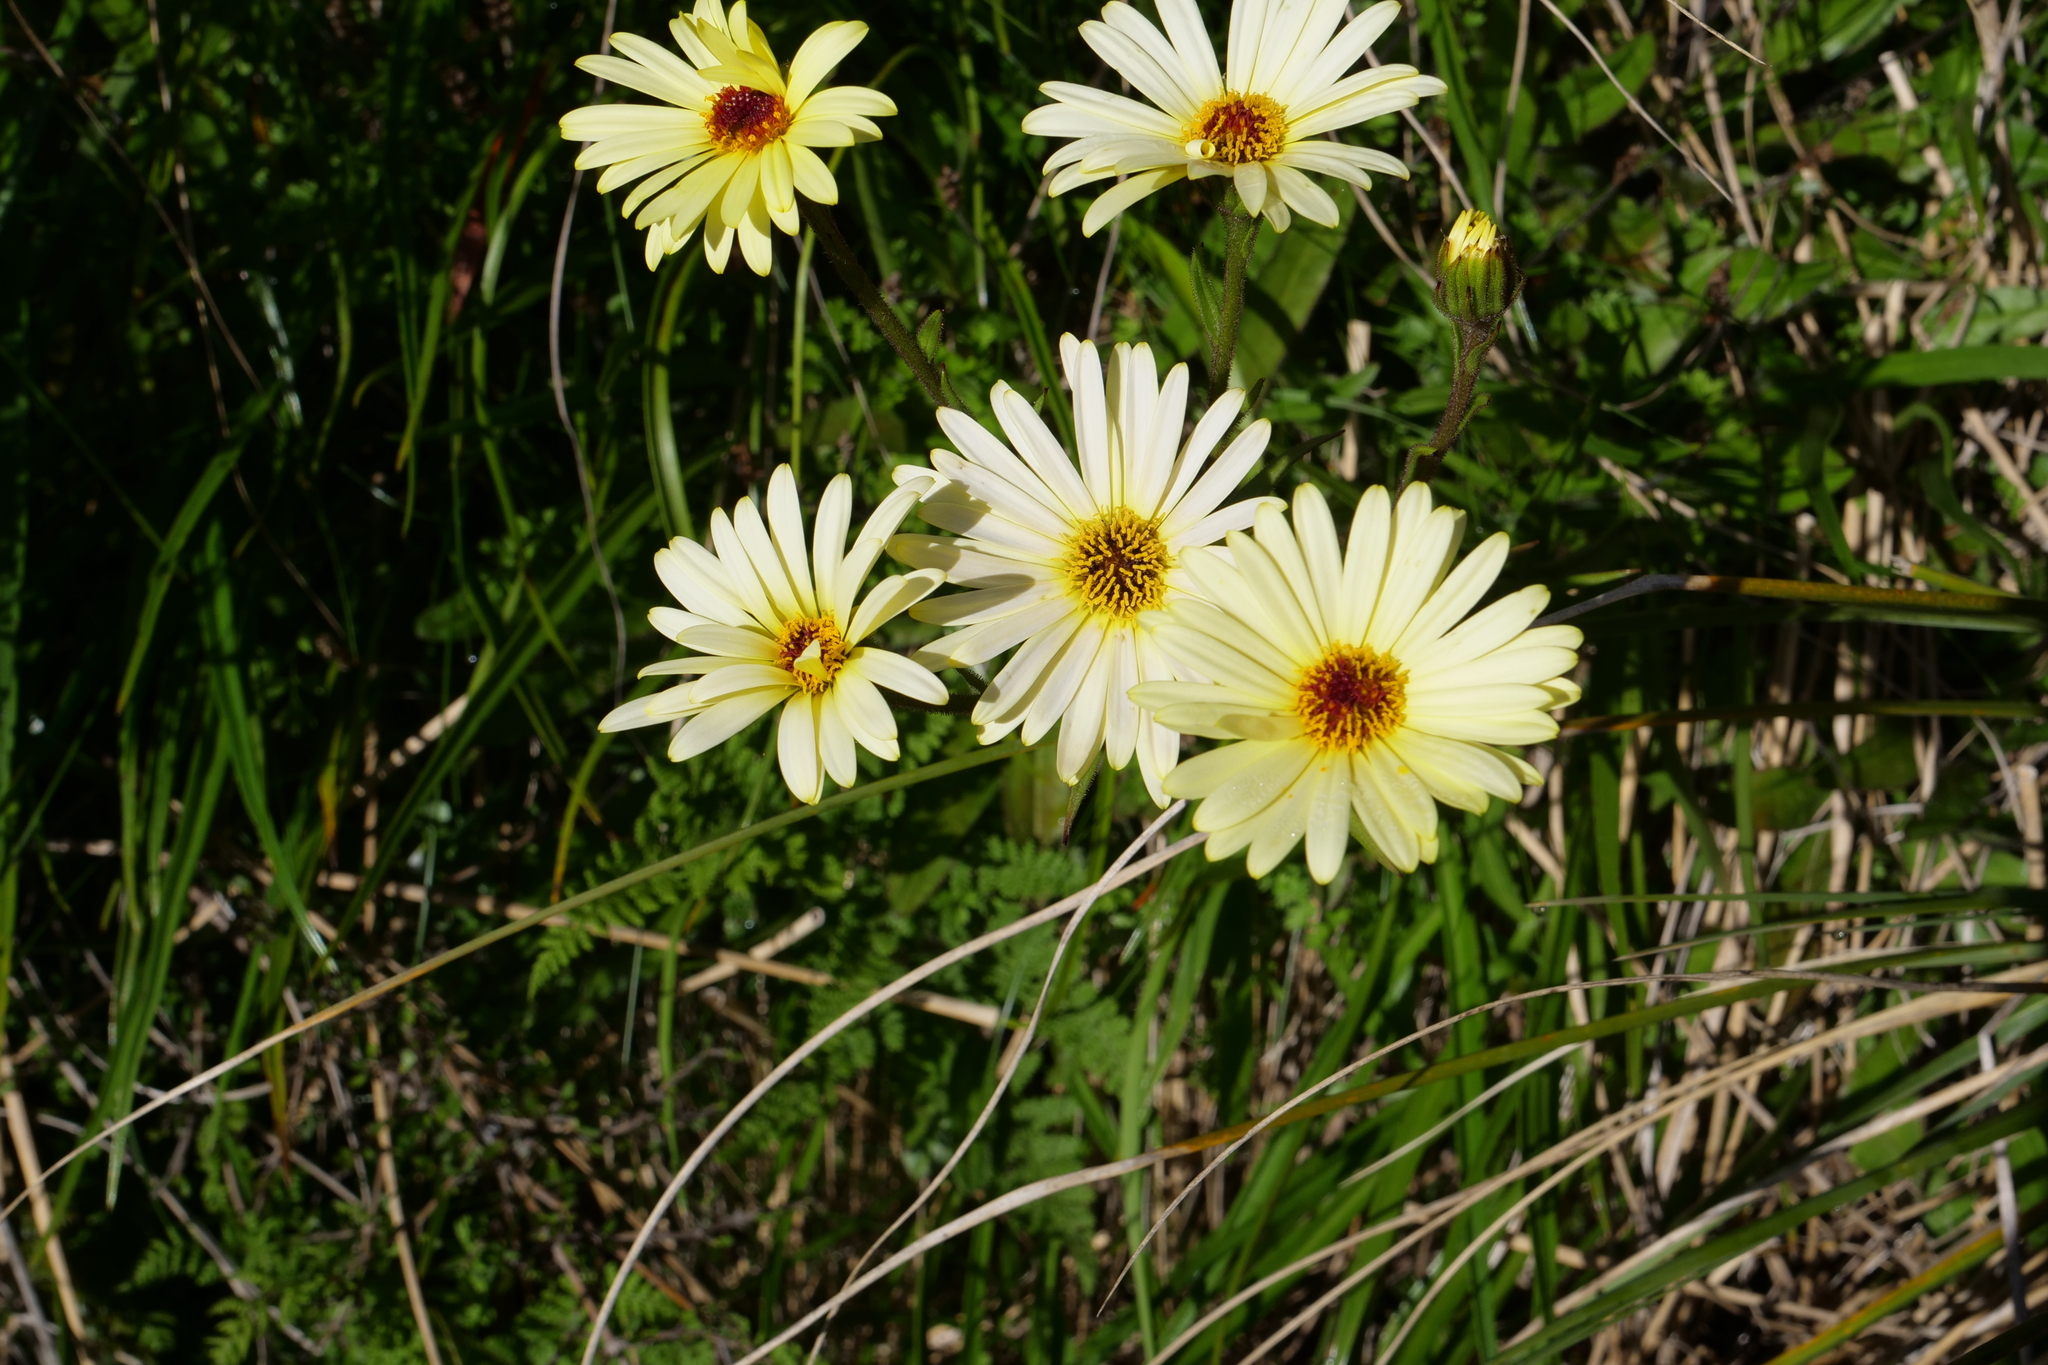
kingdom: Plantae
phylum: Tracheophyta
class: Magnoliopsida
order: Asterales
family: Asteraceae
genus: Dolichoglottis
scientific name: Dolichoglottis
